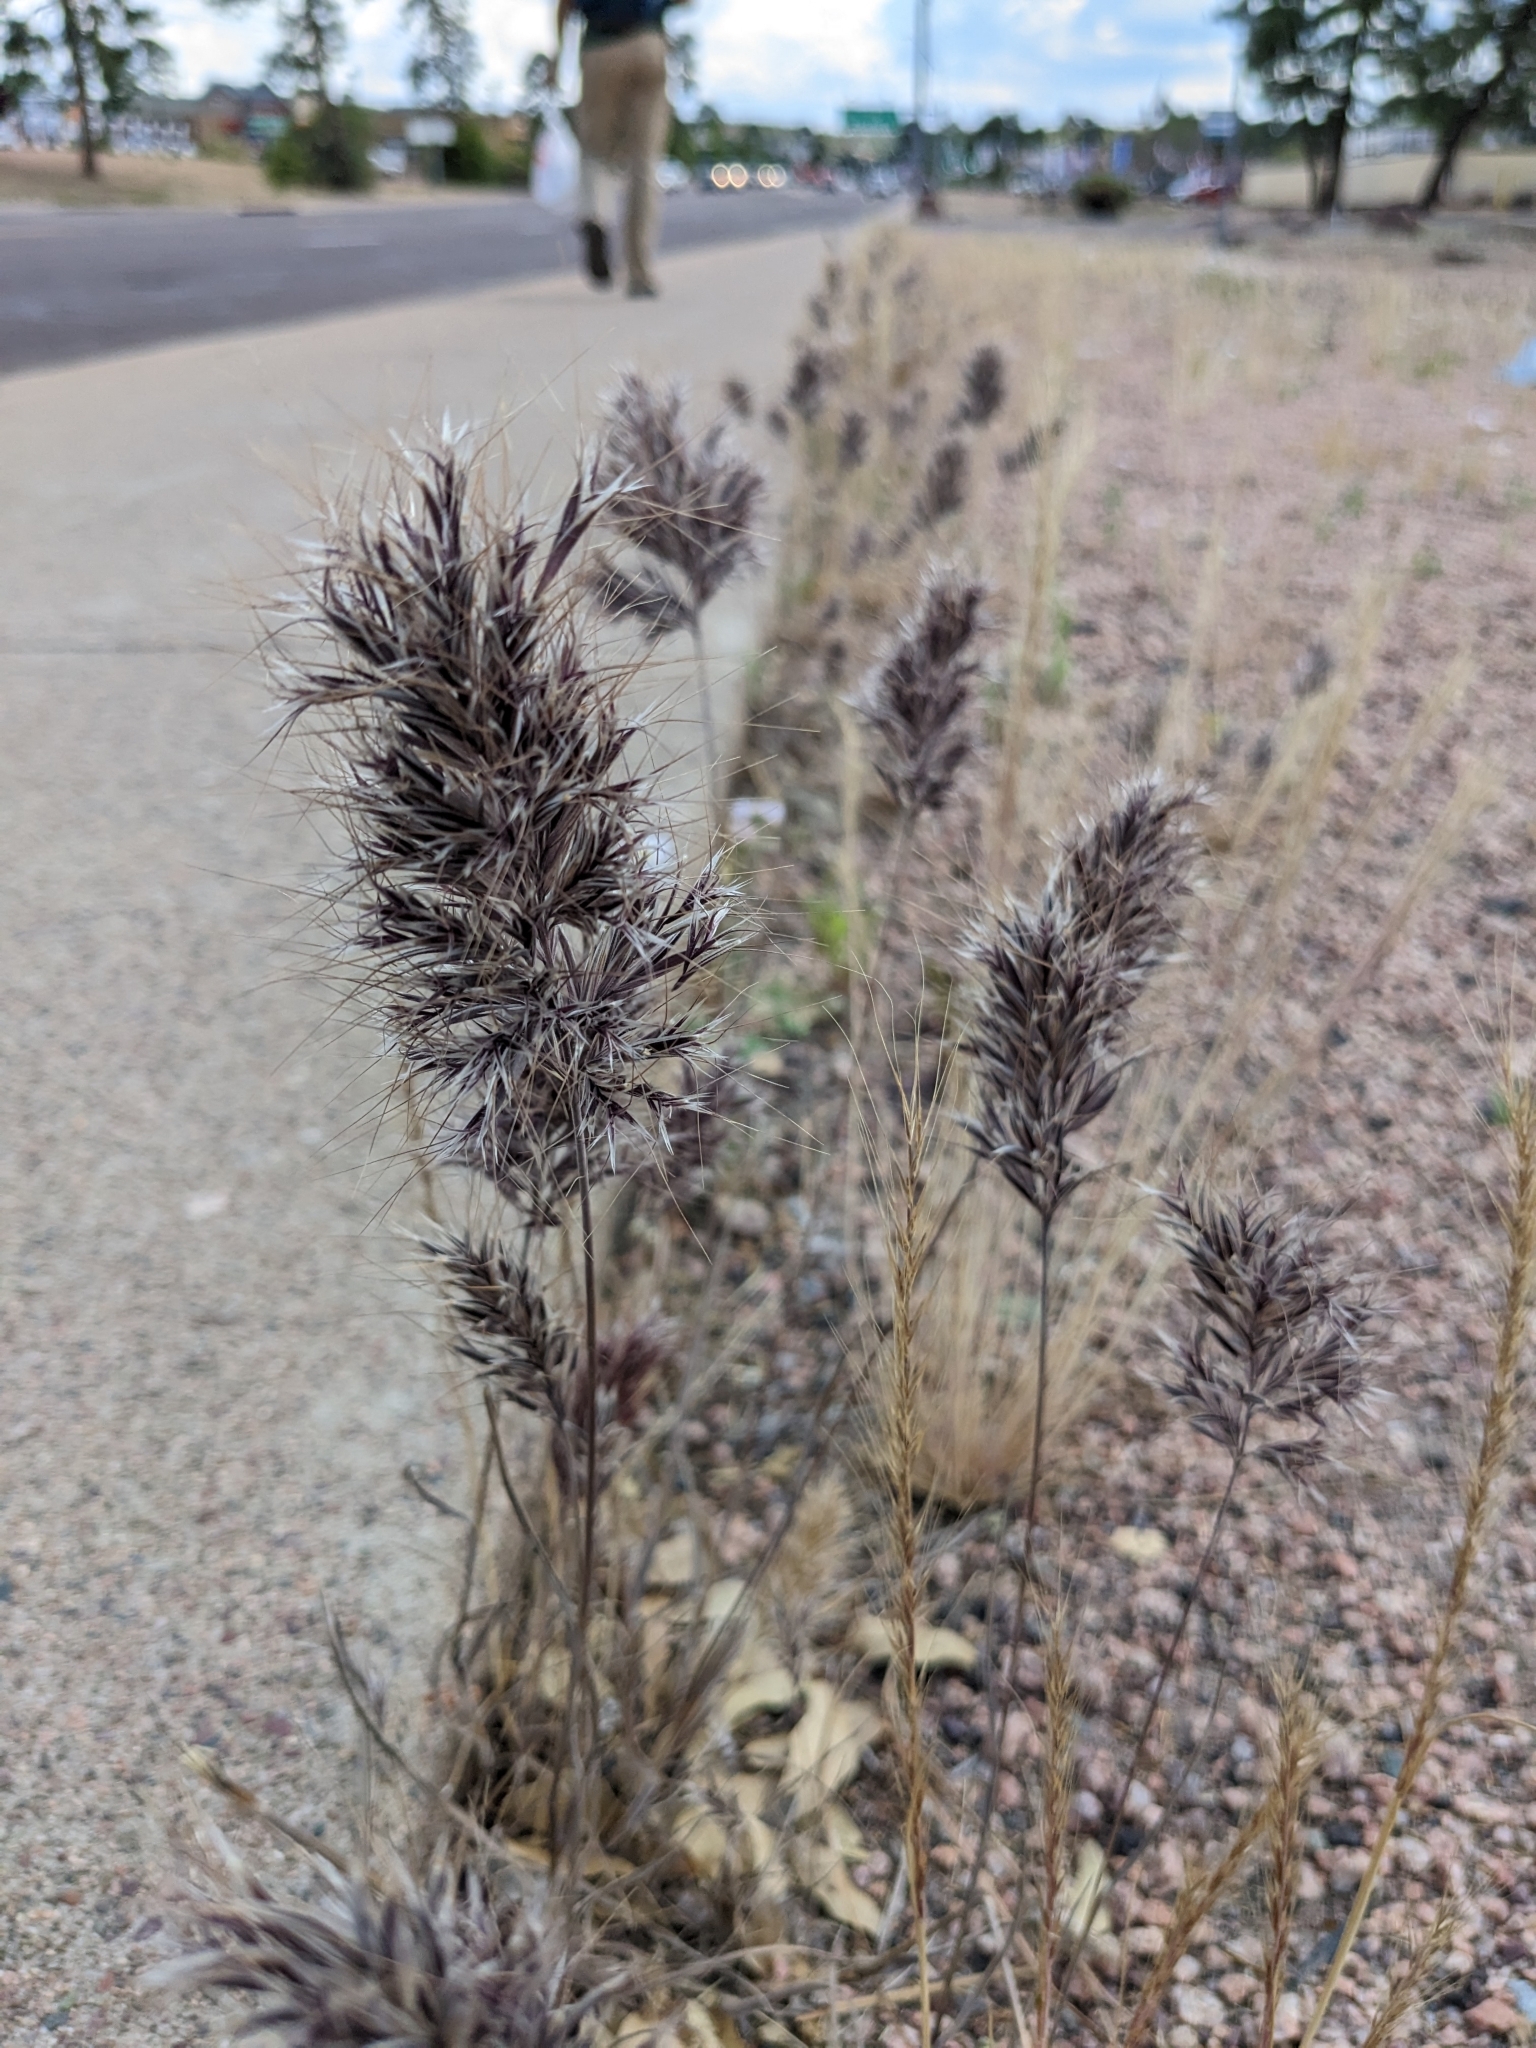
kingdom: Plantae
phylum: Tracheophyta
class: Liliopsida
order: Poales
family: Poaceae
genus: Bromus
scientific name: Bromus rubens
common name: Red brome
